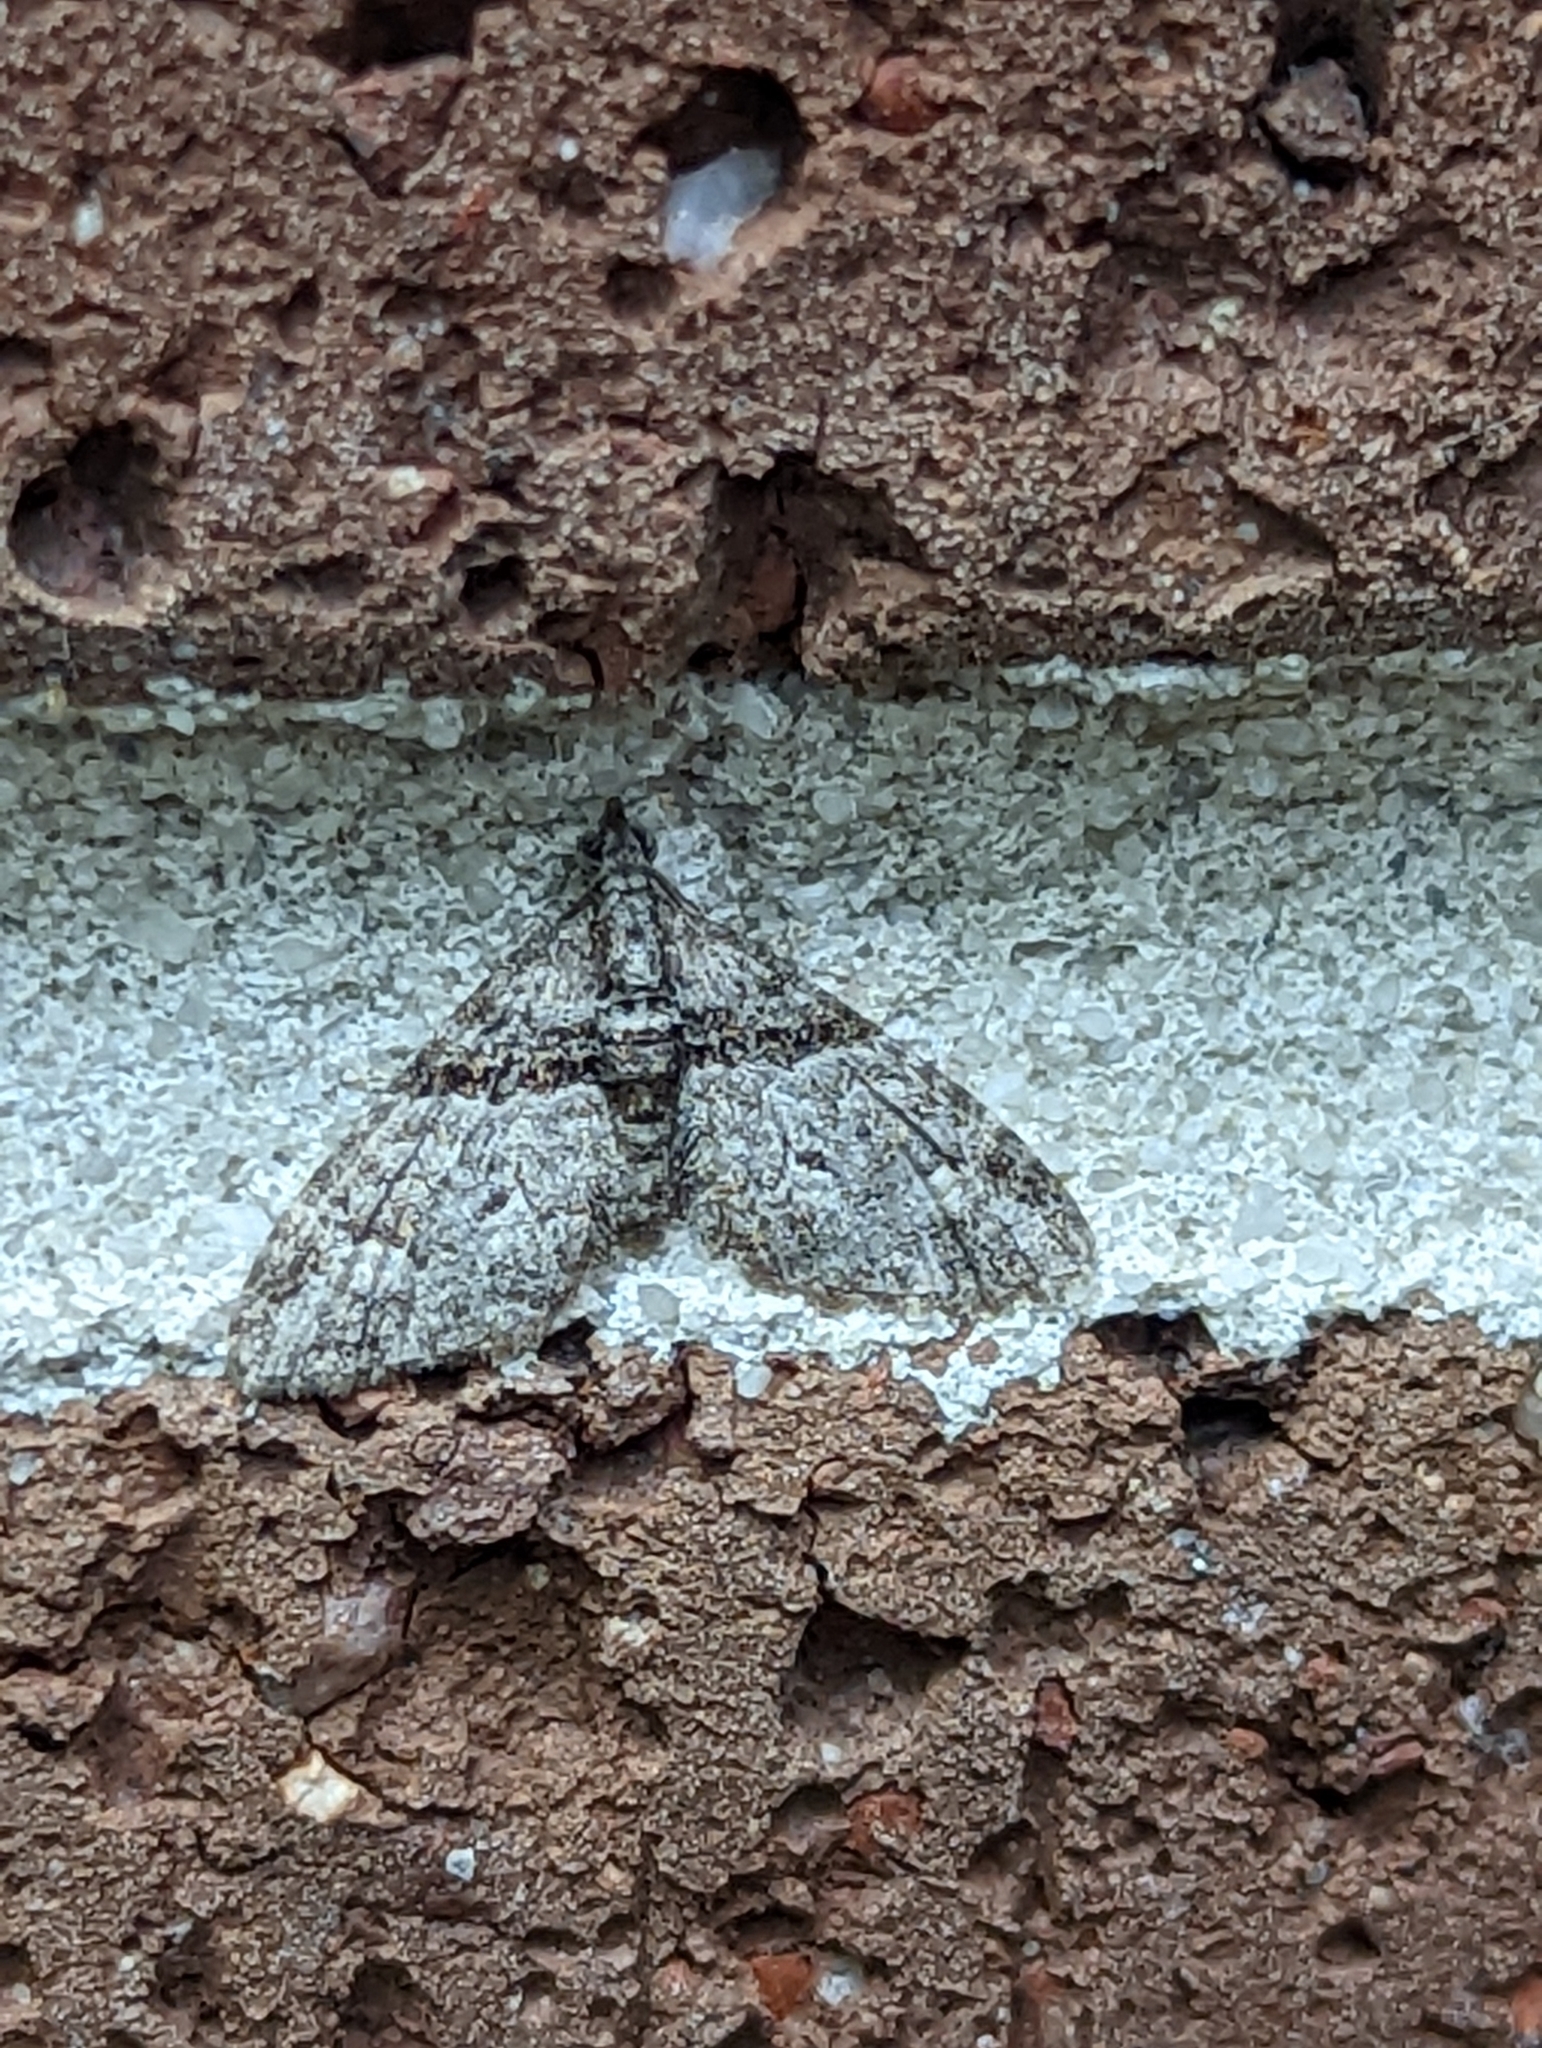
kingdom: Animalia
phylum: Arthropoda
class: Insecta
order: Lepidoptera
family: Geometridae
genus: Phrissogonus
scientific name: Phrissogonus laticostata
